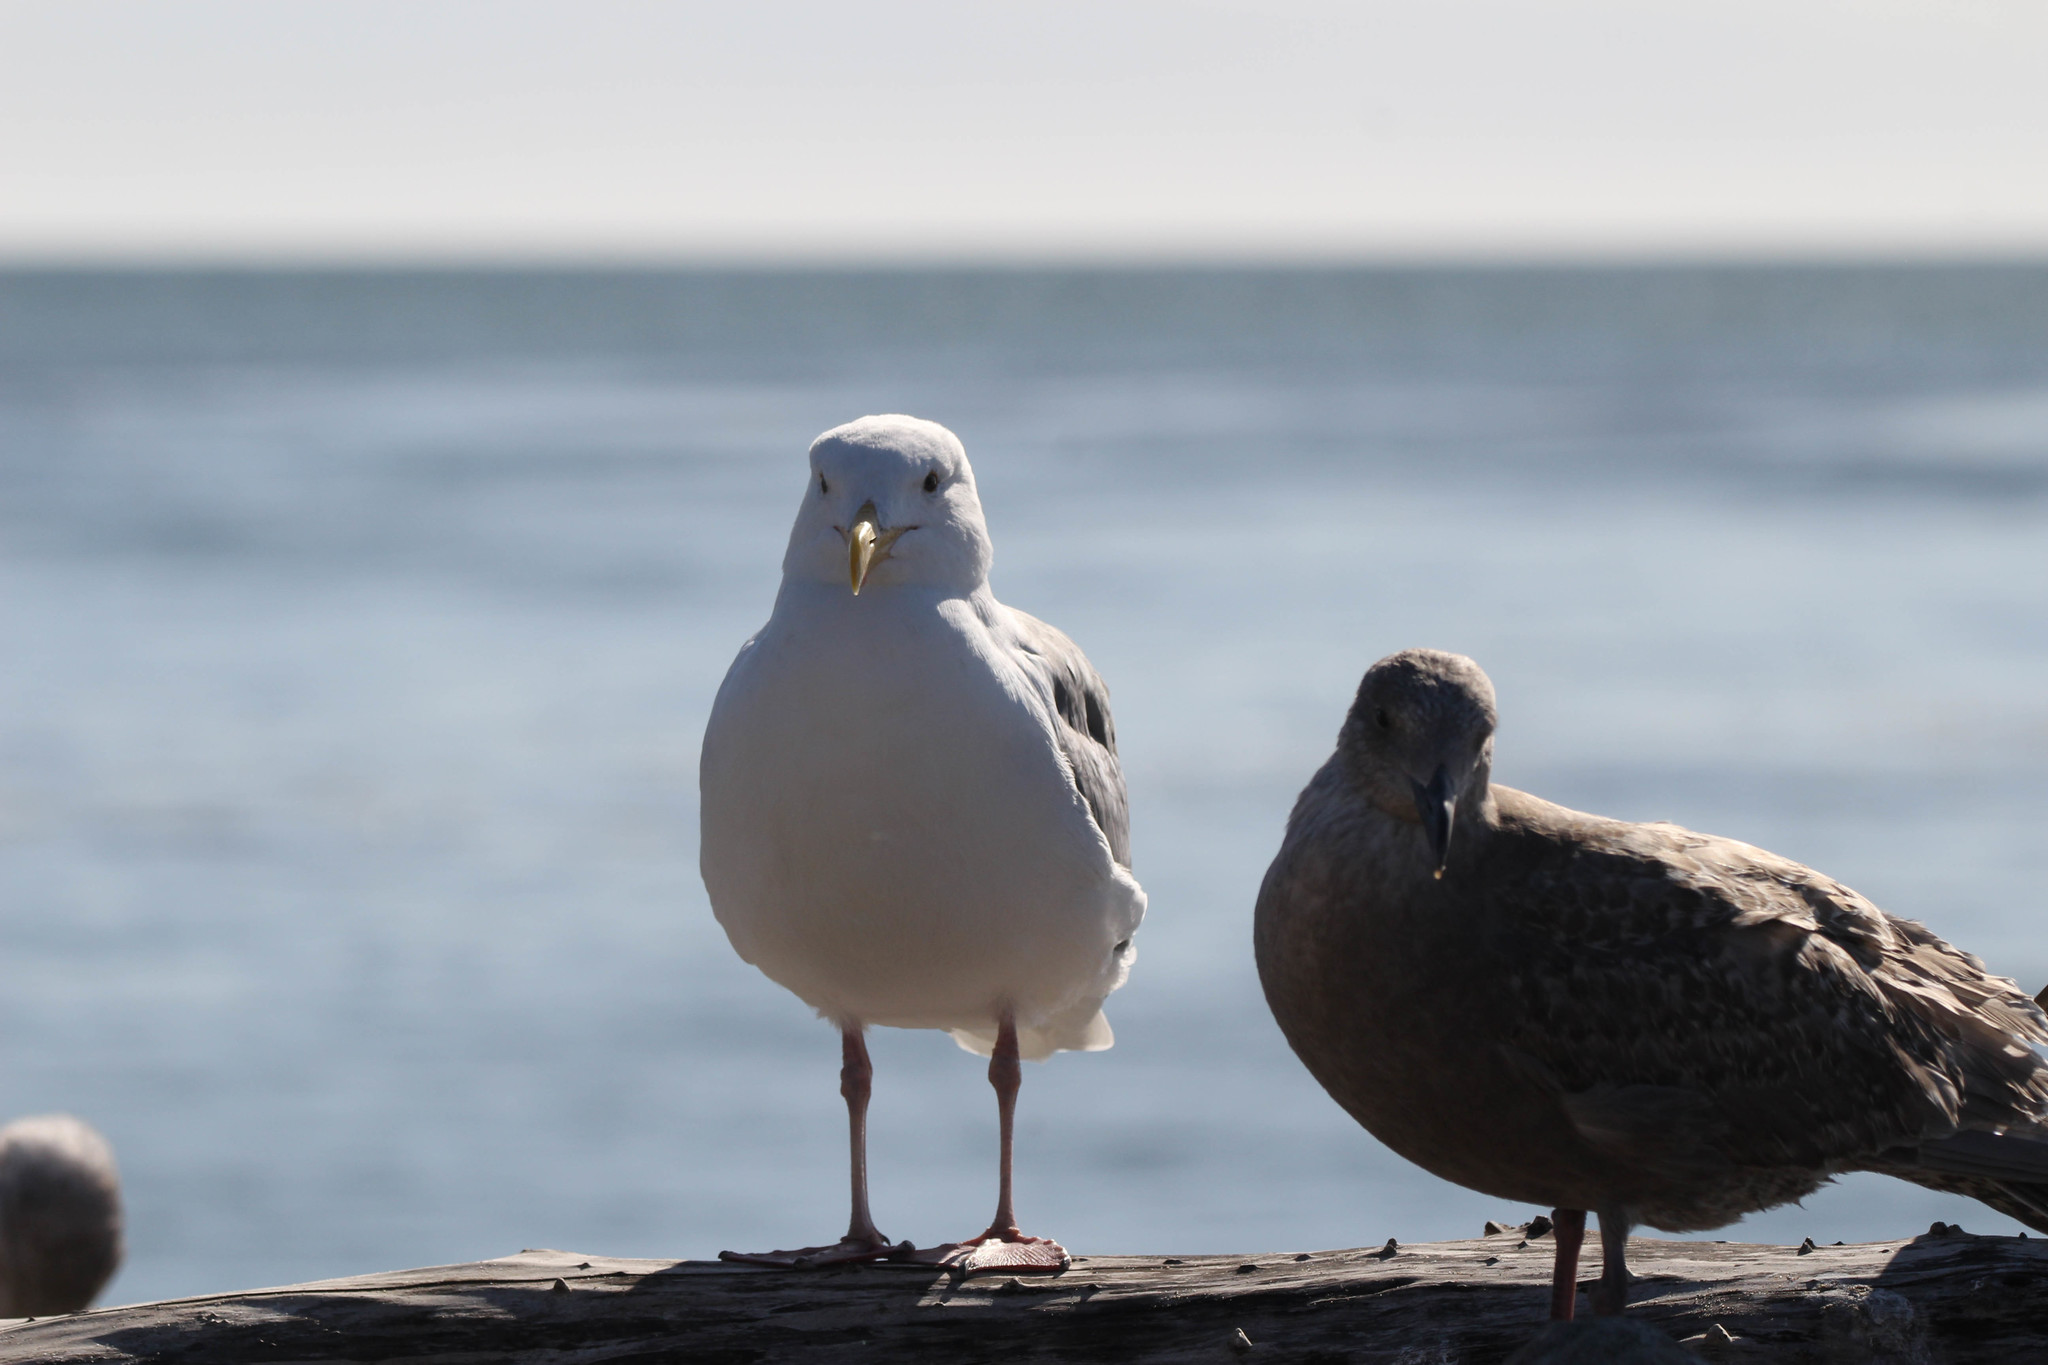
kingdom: Animalia
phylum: Chordata
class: Aves
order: Charadriiformes
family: Laridae
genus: Larus
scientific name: Larus occidentalis
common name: Western gull
